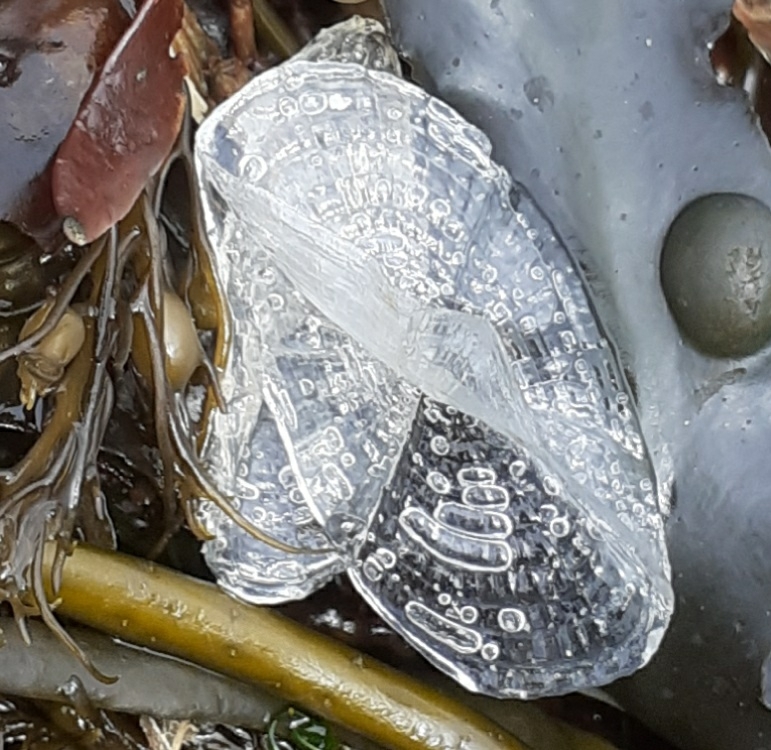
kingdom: Animalia
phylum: Cnidaria
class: Hydrozoa
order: Anthoathecata
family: Porpitidae
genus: Velella
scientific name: Velella velella
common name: By-the-wind-sailor
